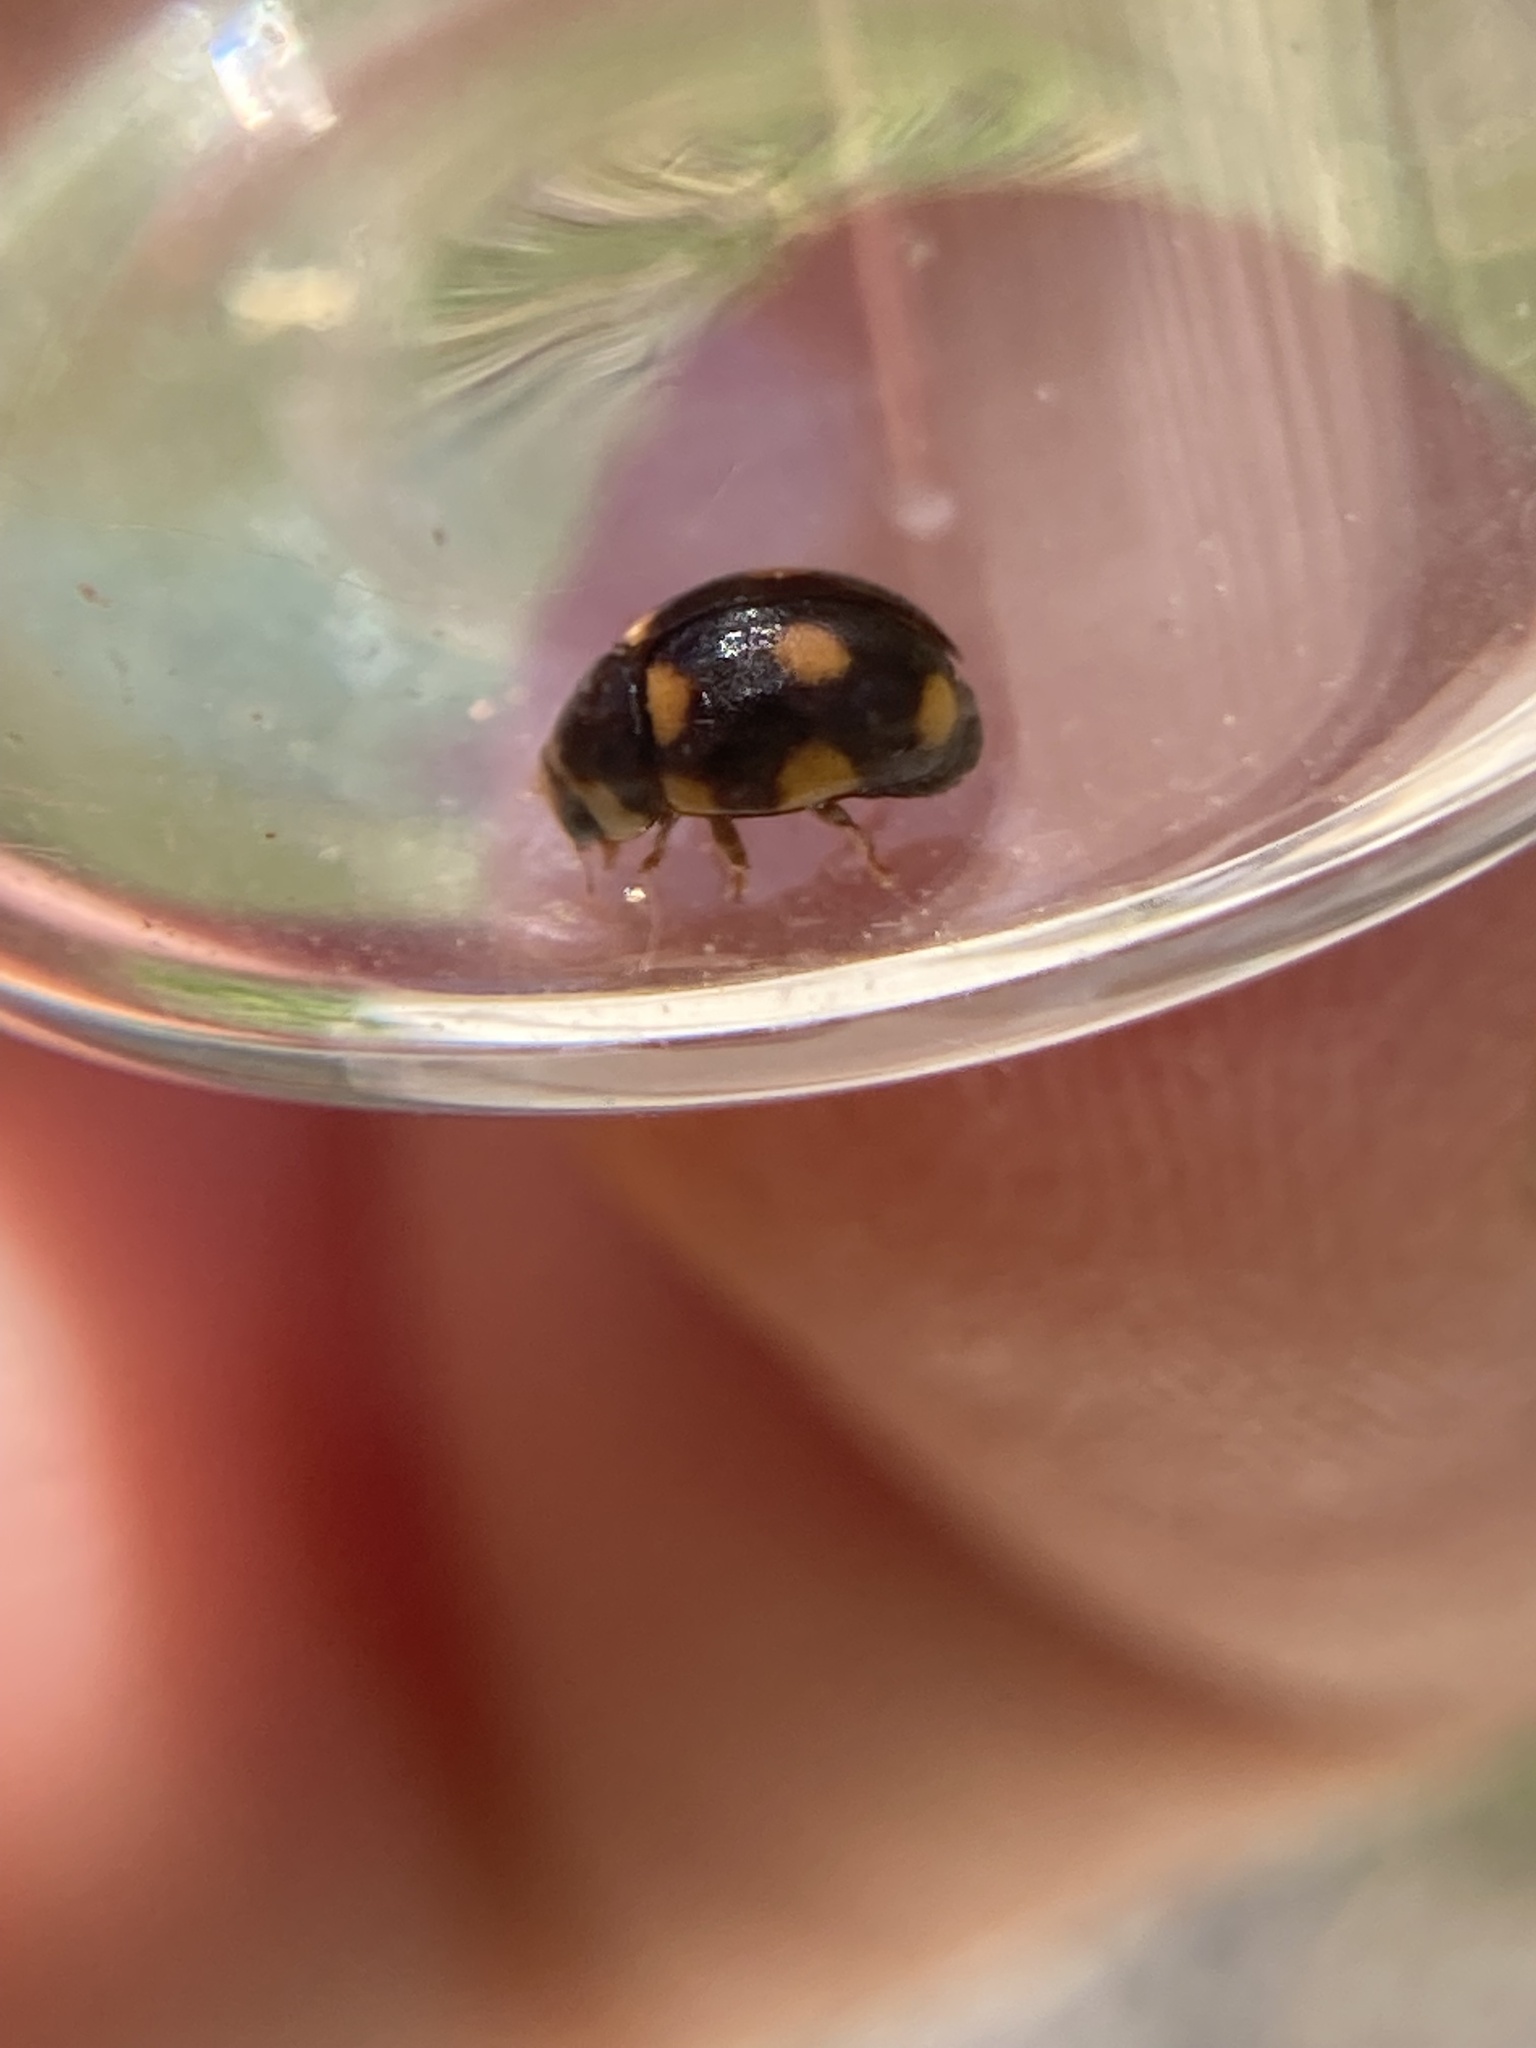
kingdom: Animalia
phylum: Arthropoda
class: Insecta
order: Coleoptera
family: Coccinellidae
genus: Brachiacantha
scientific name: Brachiacantha ursina
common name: Ursine spurleg lady beetle
